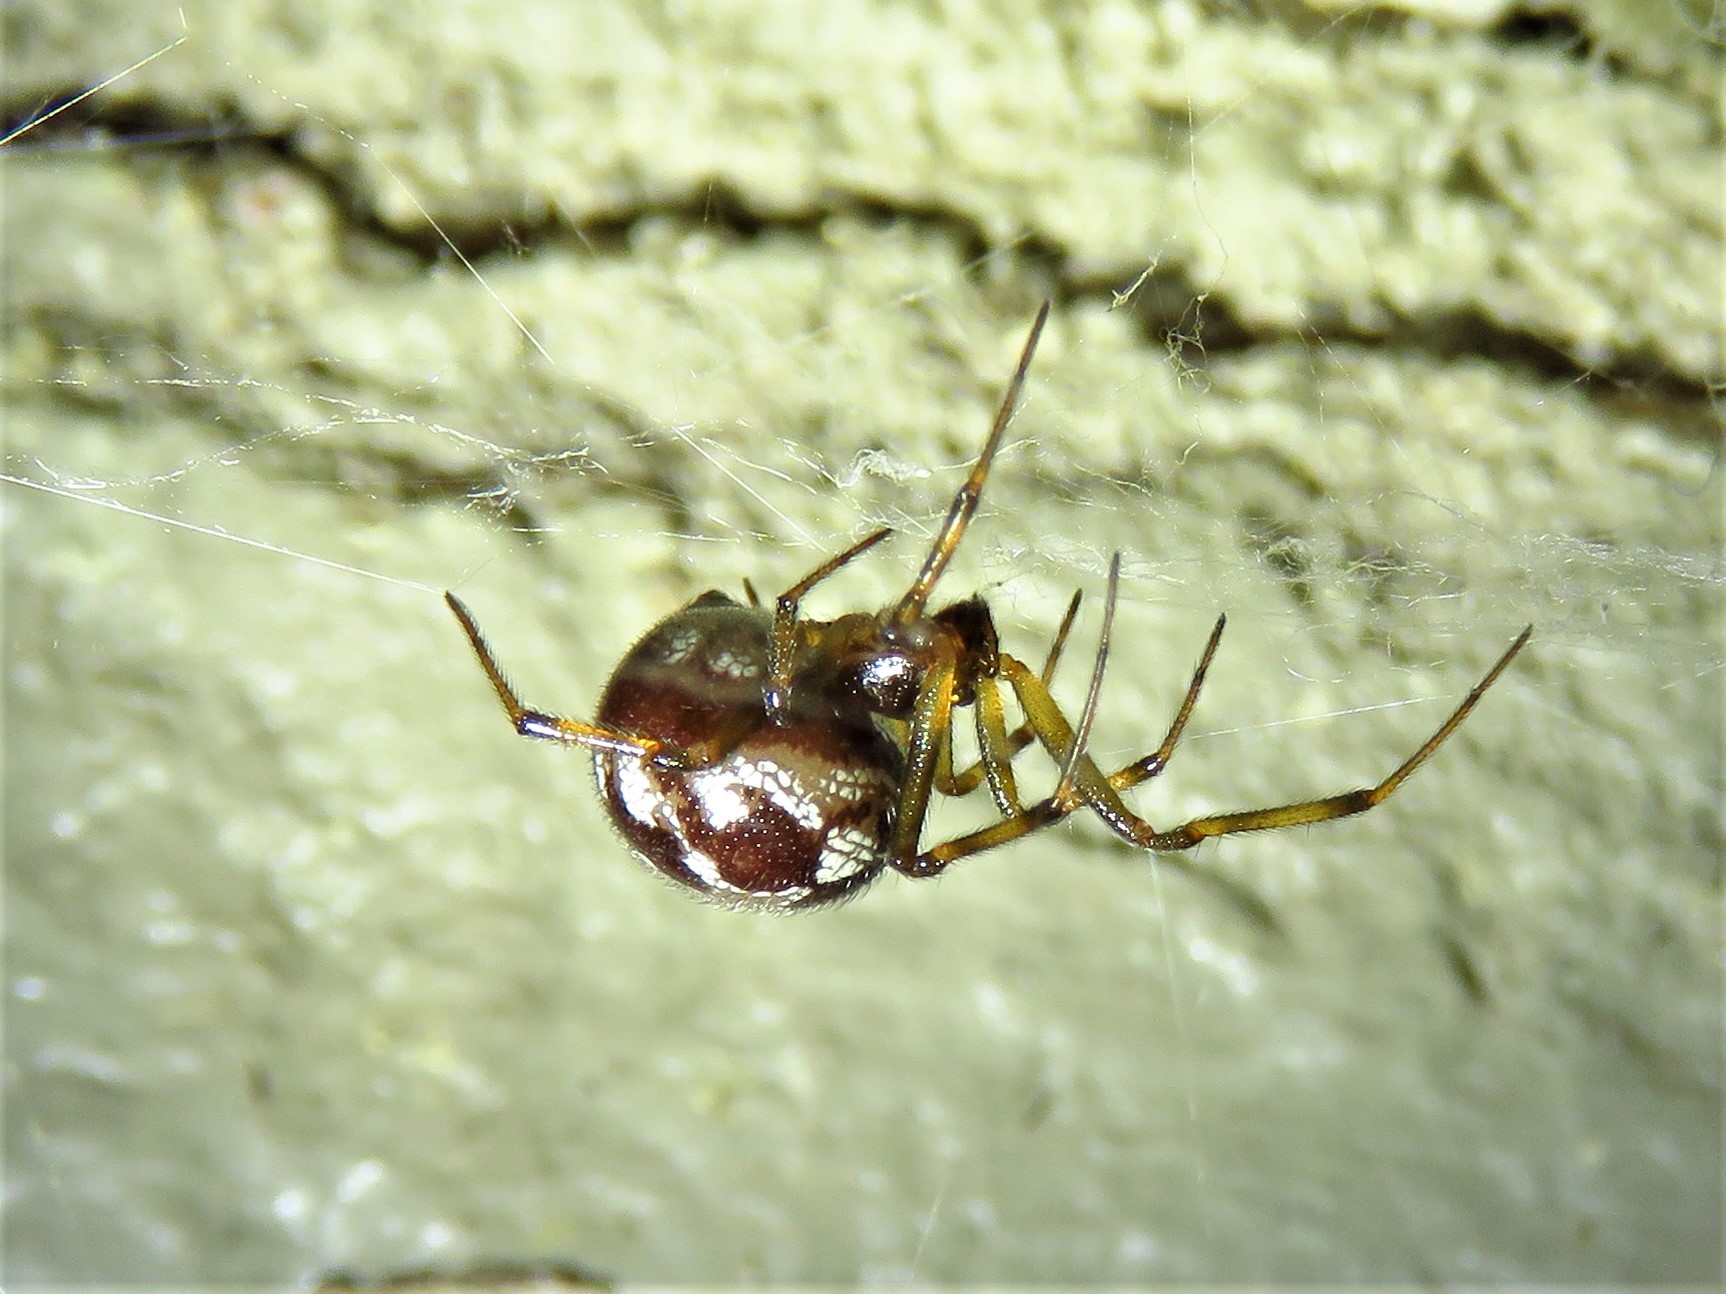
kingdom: Animalia
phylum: Arthropoda
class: Arachnida
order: Araneae
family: Theridiidae
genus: Steatoda
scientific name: Steatoda triangulosa
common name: Triangulate bud spider
